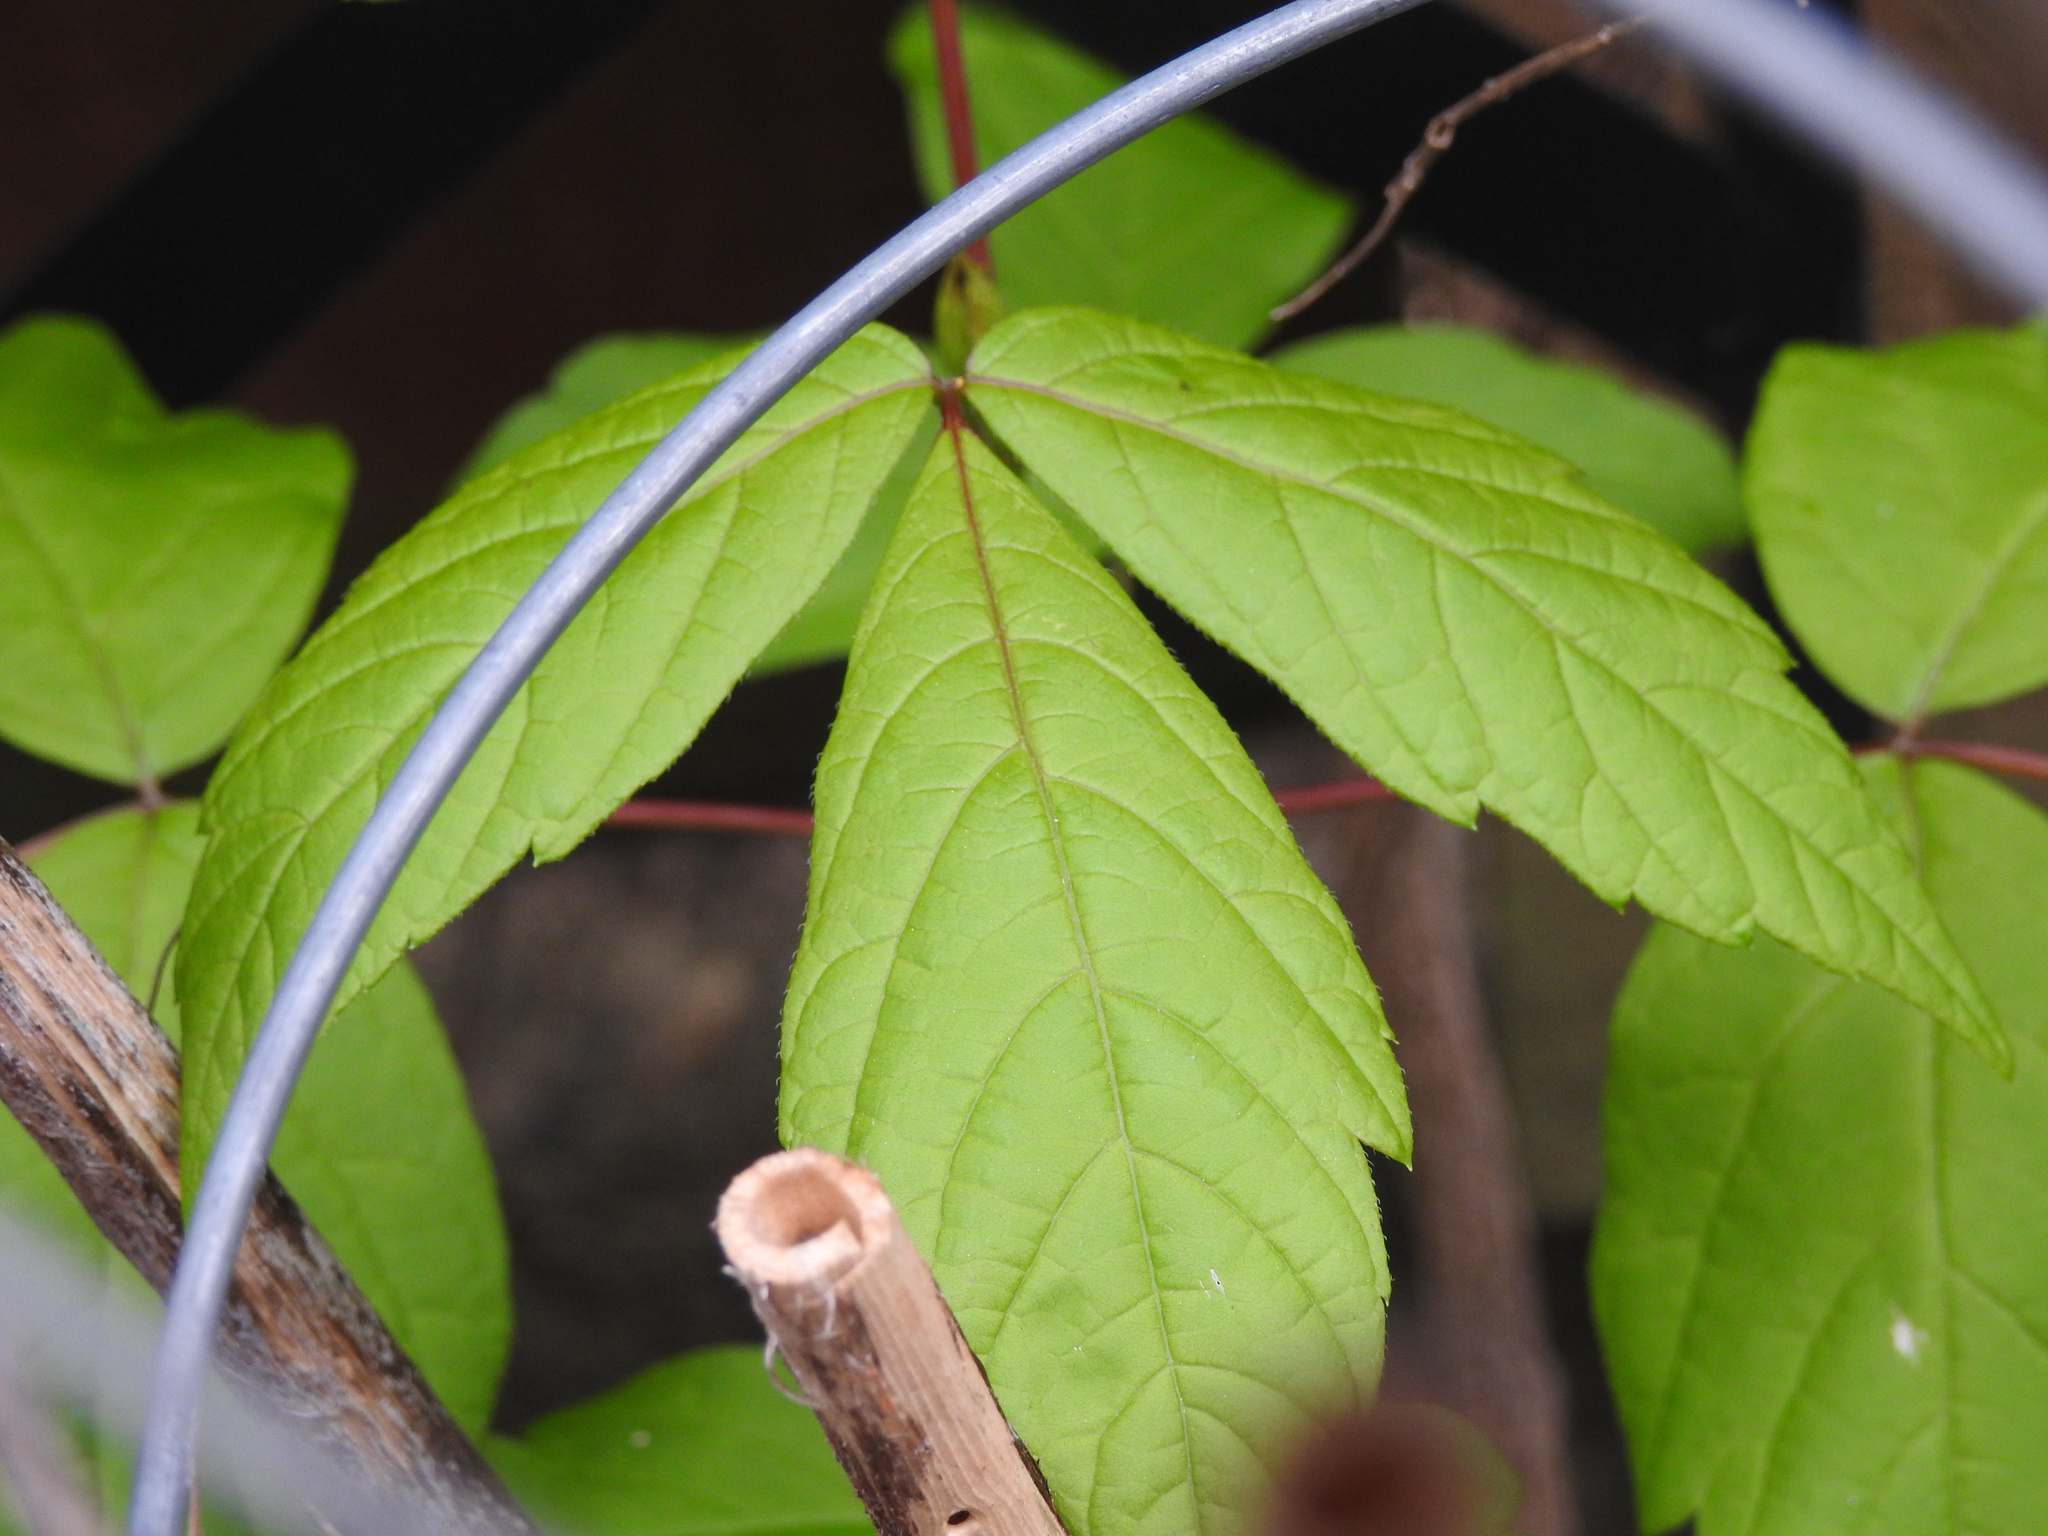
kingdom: Plantae
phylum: Tracheophyta
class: Magnoliopsida
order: Sapindales
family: Sapindaceae
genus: Acer
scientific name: Acer negundo
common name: Ashleaf maple
